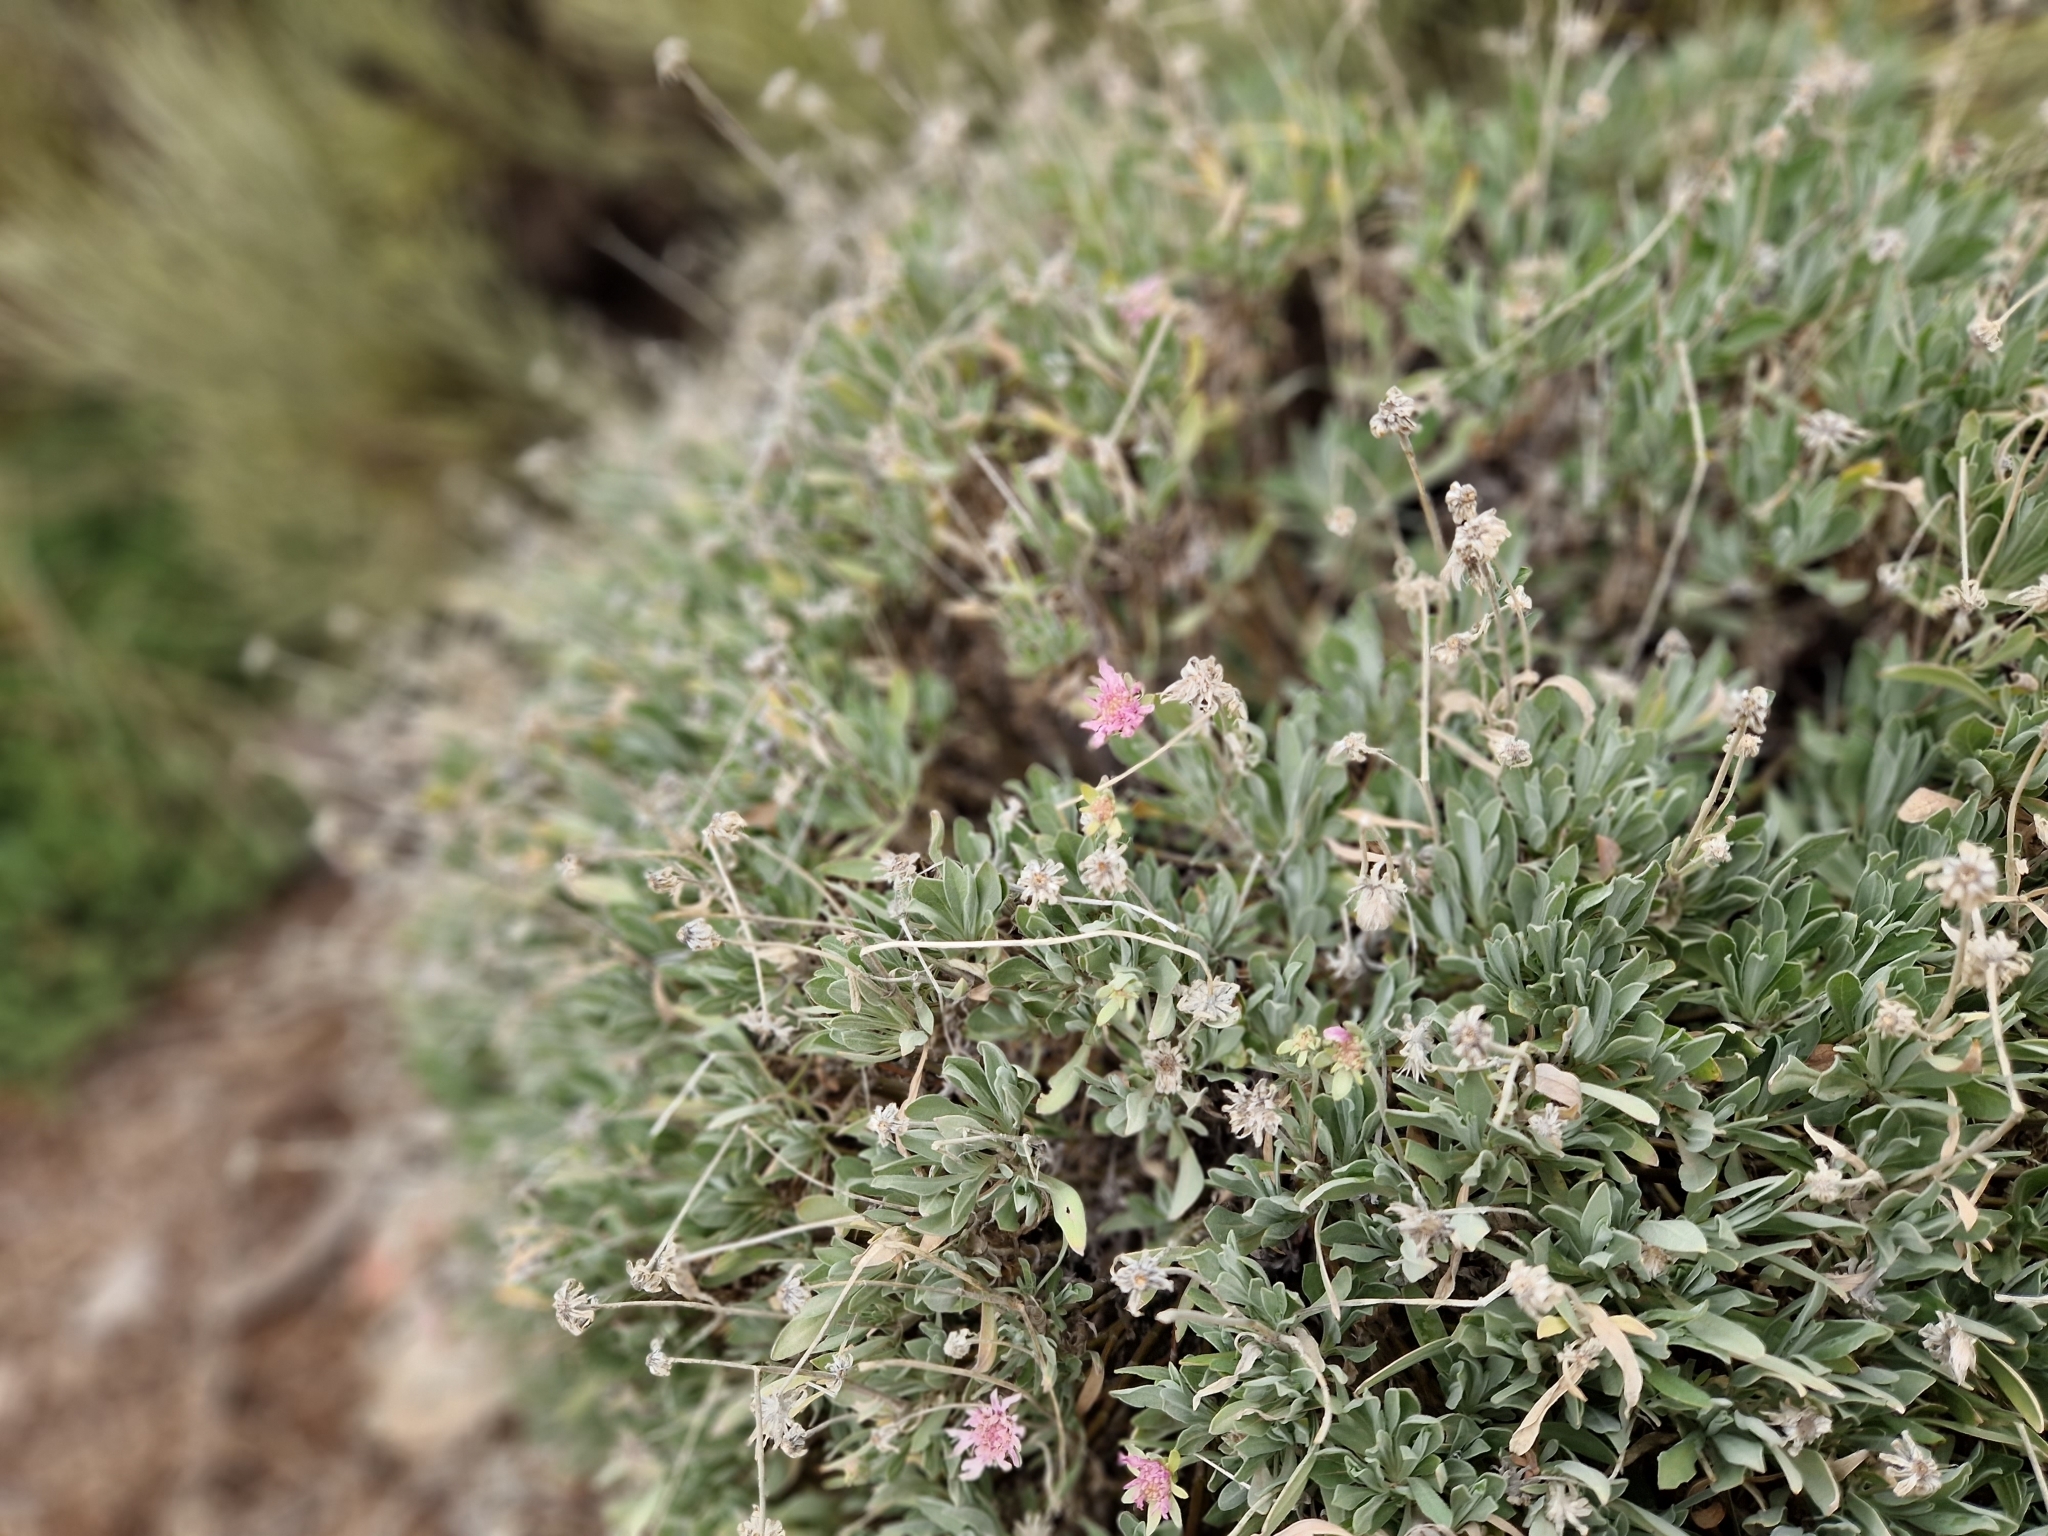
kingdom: Plantae
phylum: Tracheophyta
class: Magnoliopsida
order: Dipsacales
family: Caprifoliaceae
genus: Pterocephalus
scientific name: Pterocephalus lasiospermus
